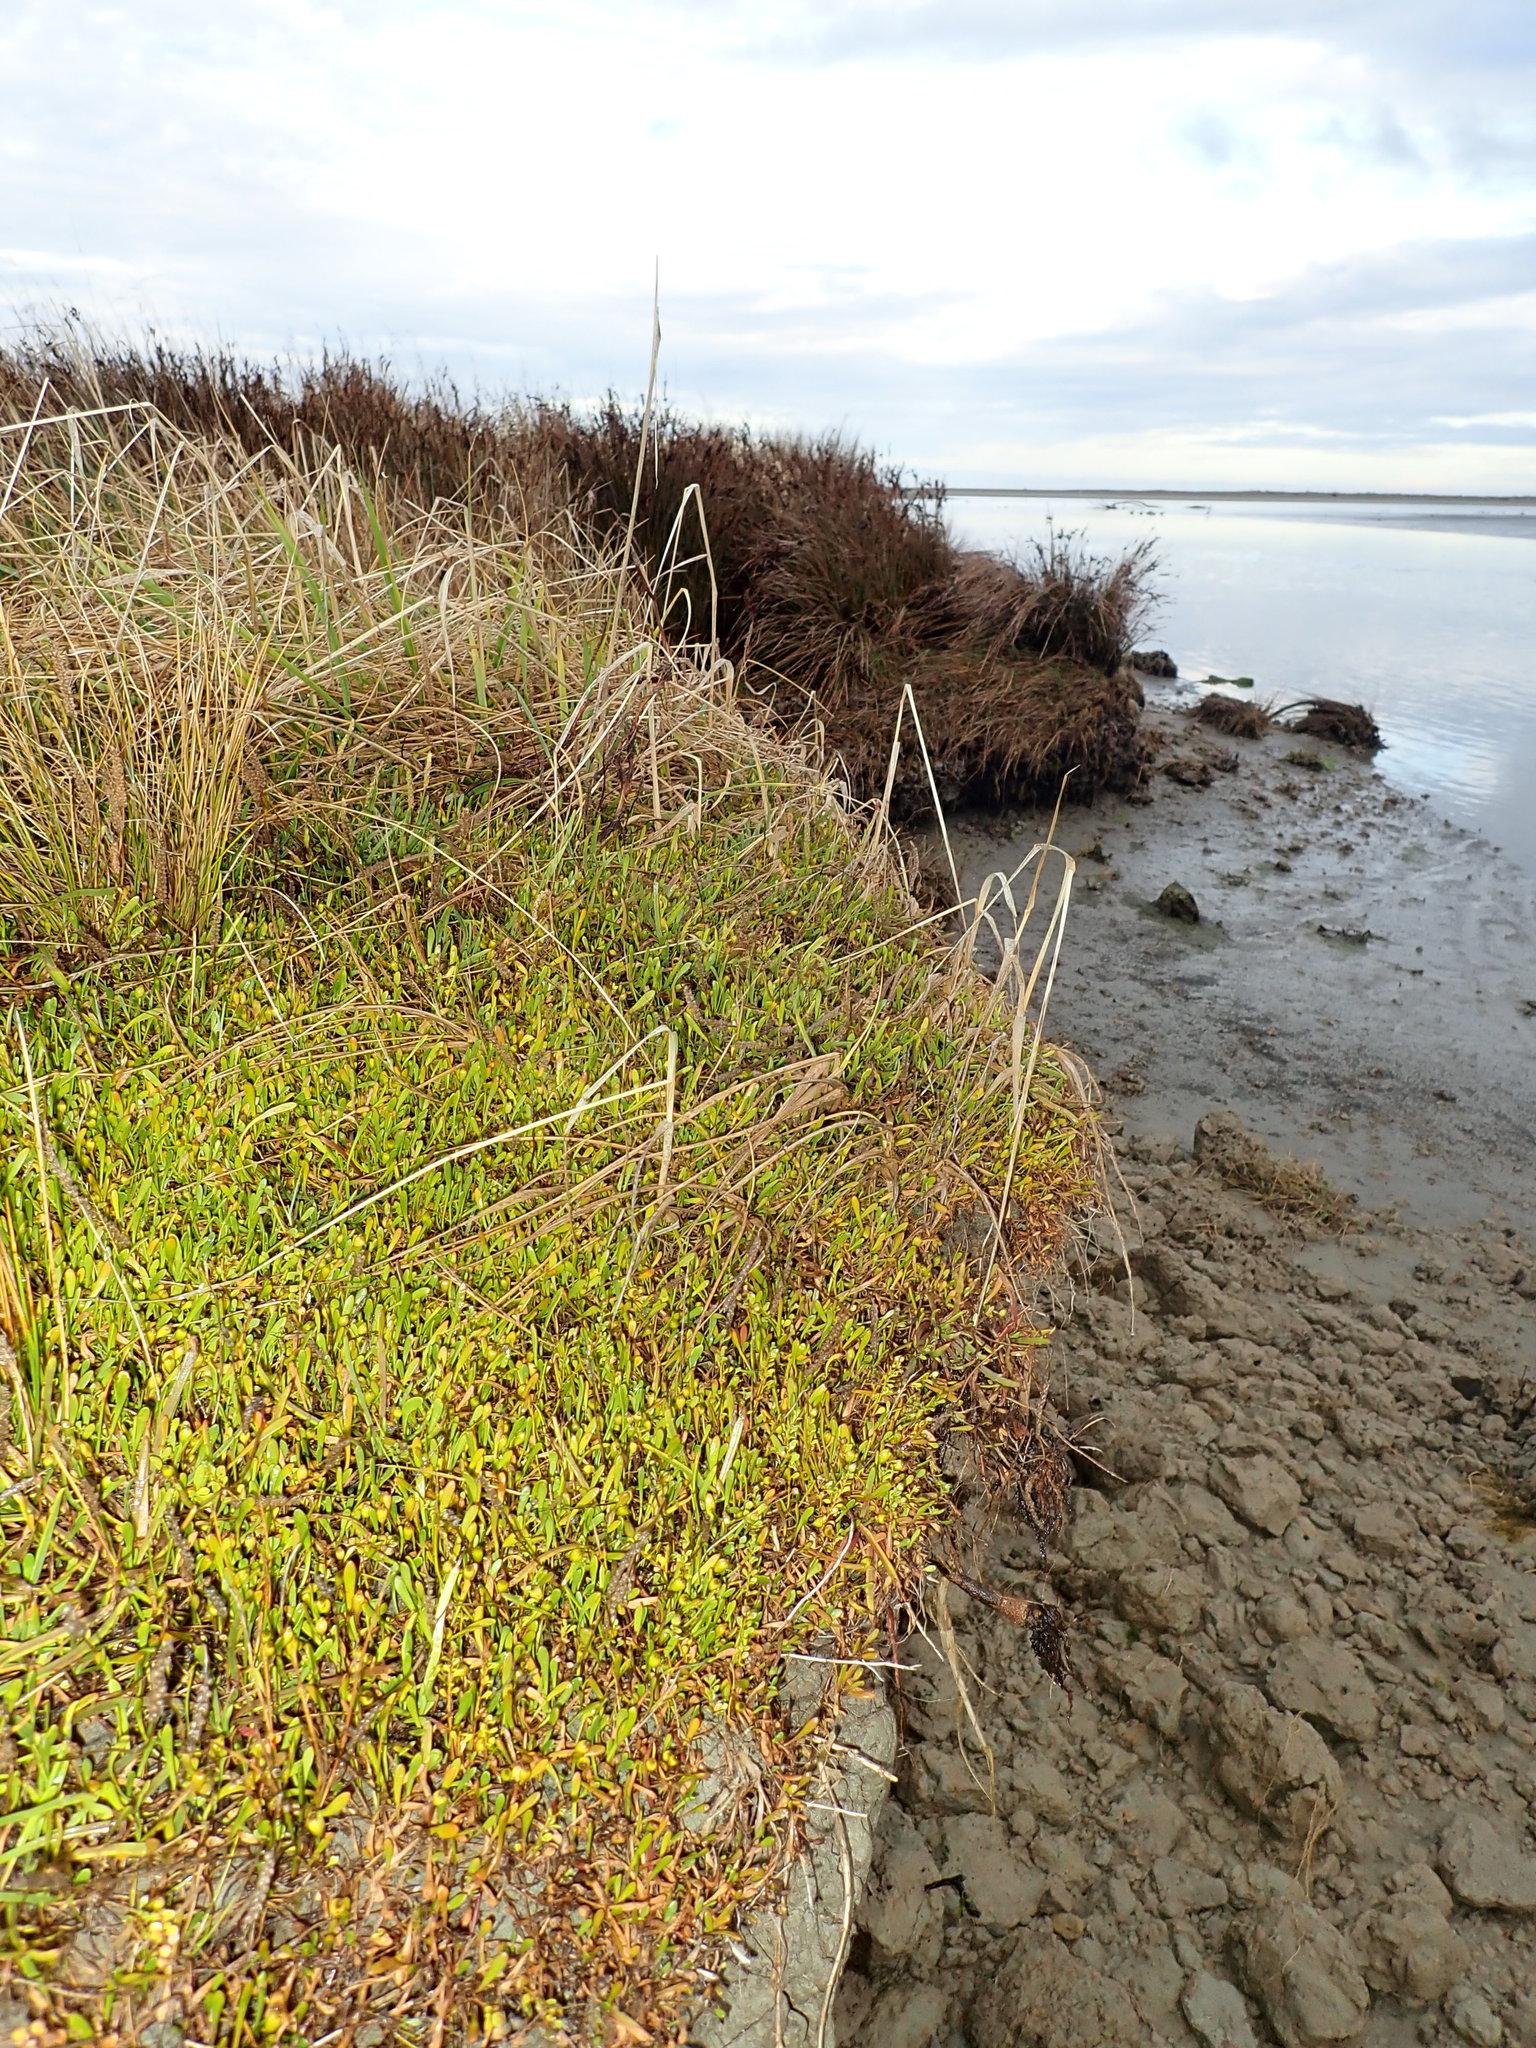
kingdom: Plantae
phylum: Tracheophyta
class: Magnoliopsida
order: Asterales
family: Goodeniaceae
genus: Goodenia
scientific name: Goodenia radicans
